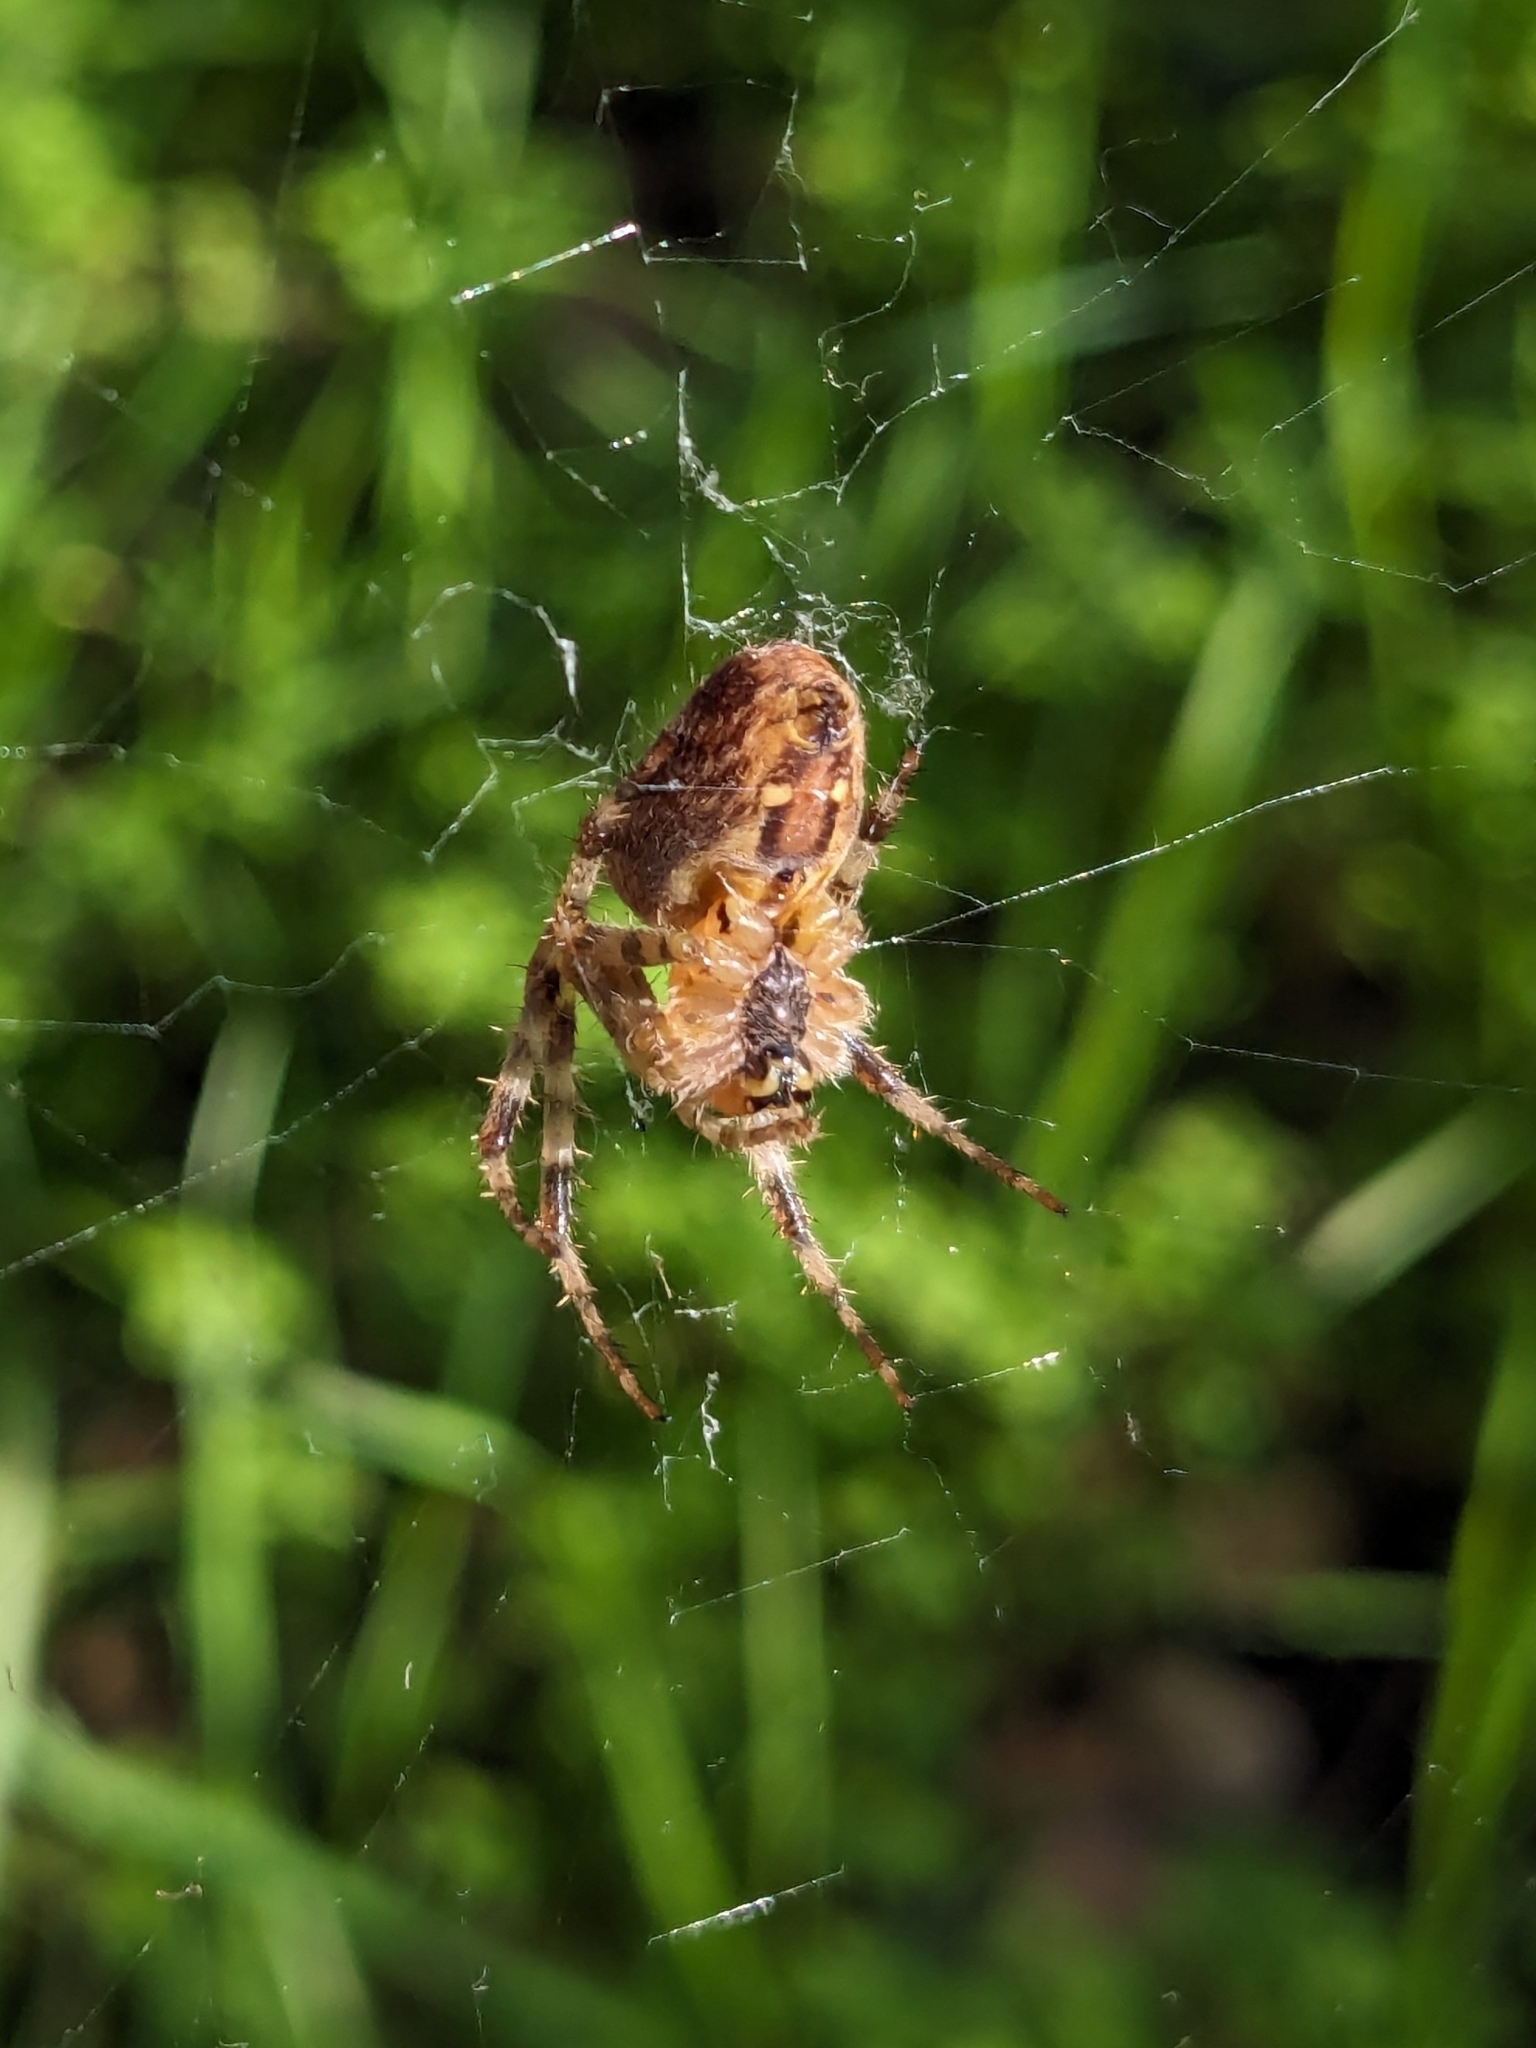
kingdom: Animalia
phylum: Arthropoda
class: Arachnida
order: Araneae
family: Araneidae
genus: Araneus
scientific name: Araneus diadematus
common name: Cross orbweaver
